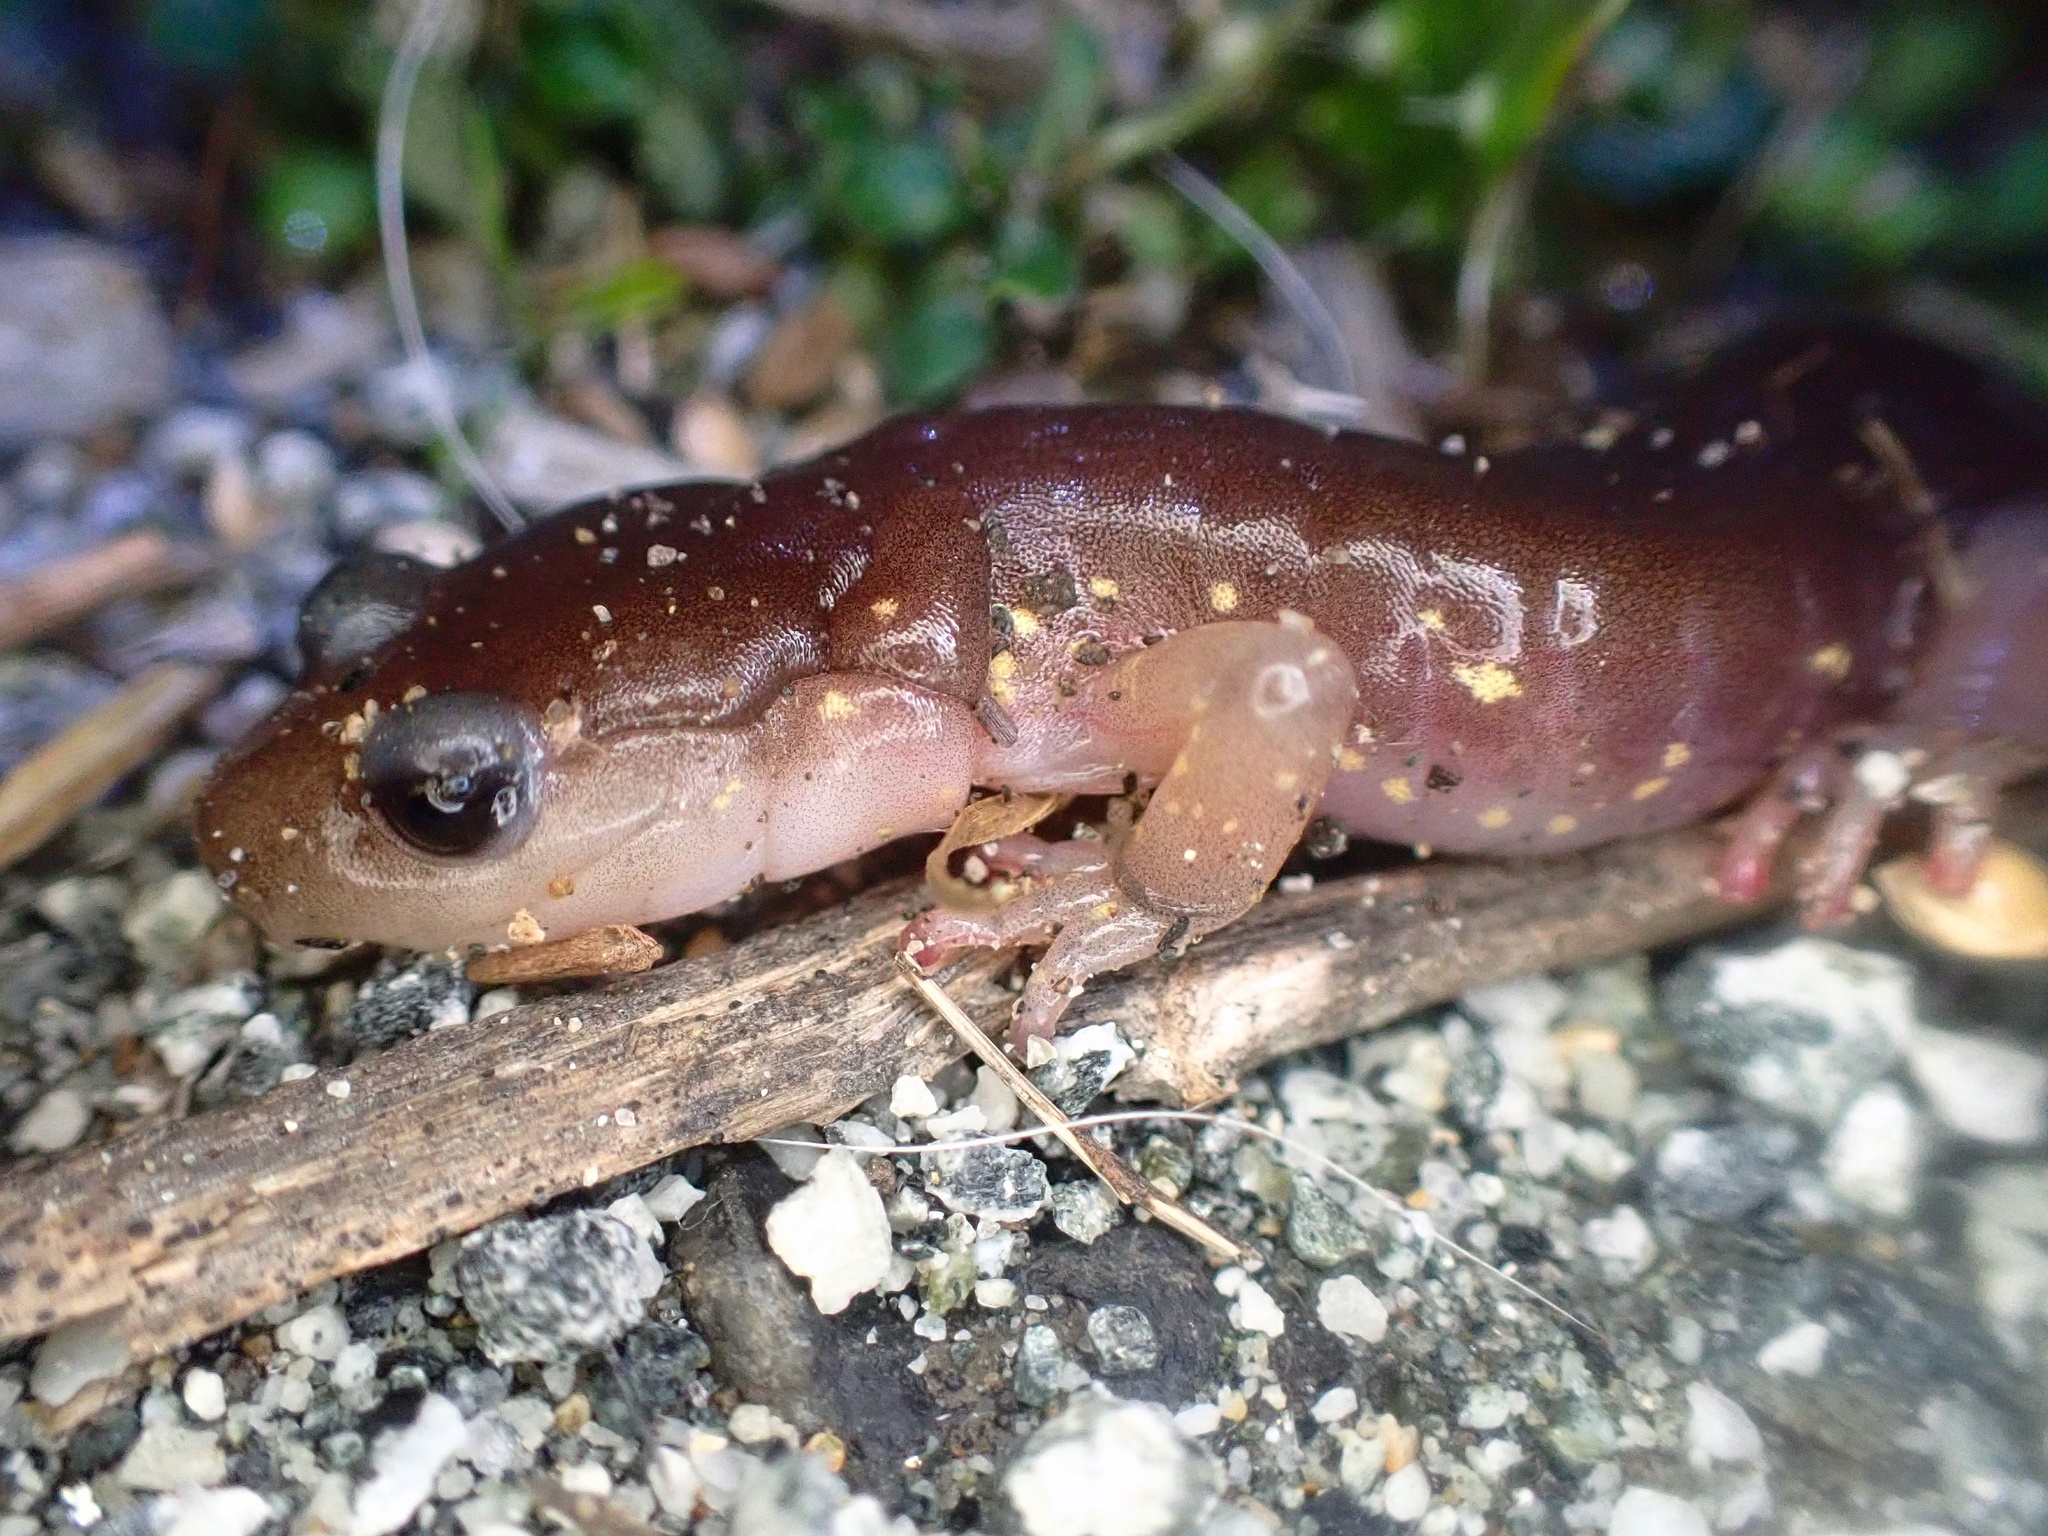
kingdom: Animalia
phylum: Chordata
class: Amphibia
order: Caudata
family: Plethodontidae
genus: Aneides
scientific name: Aneides lugubris
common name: Arboreal salamander
